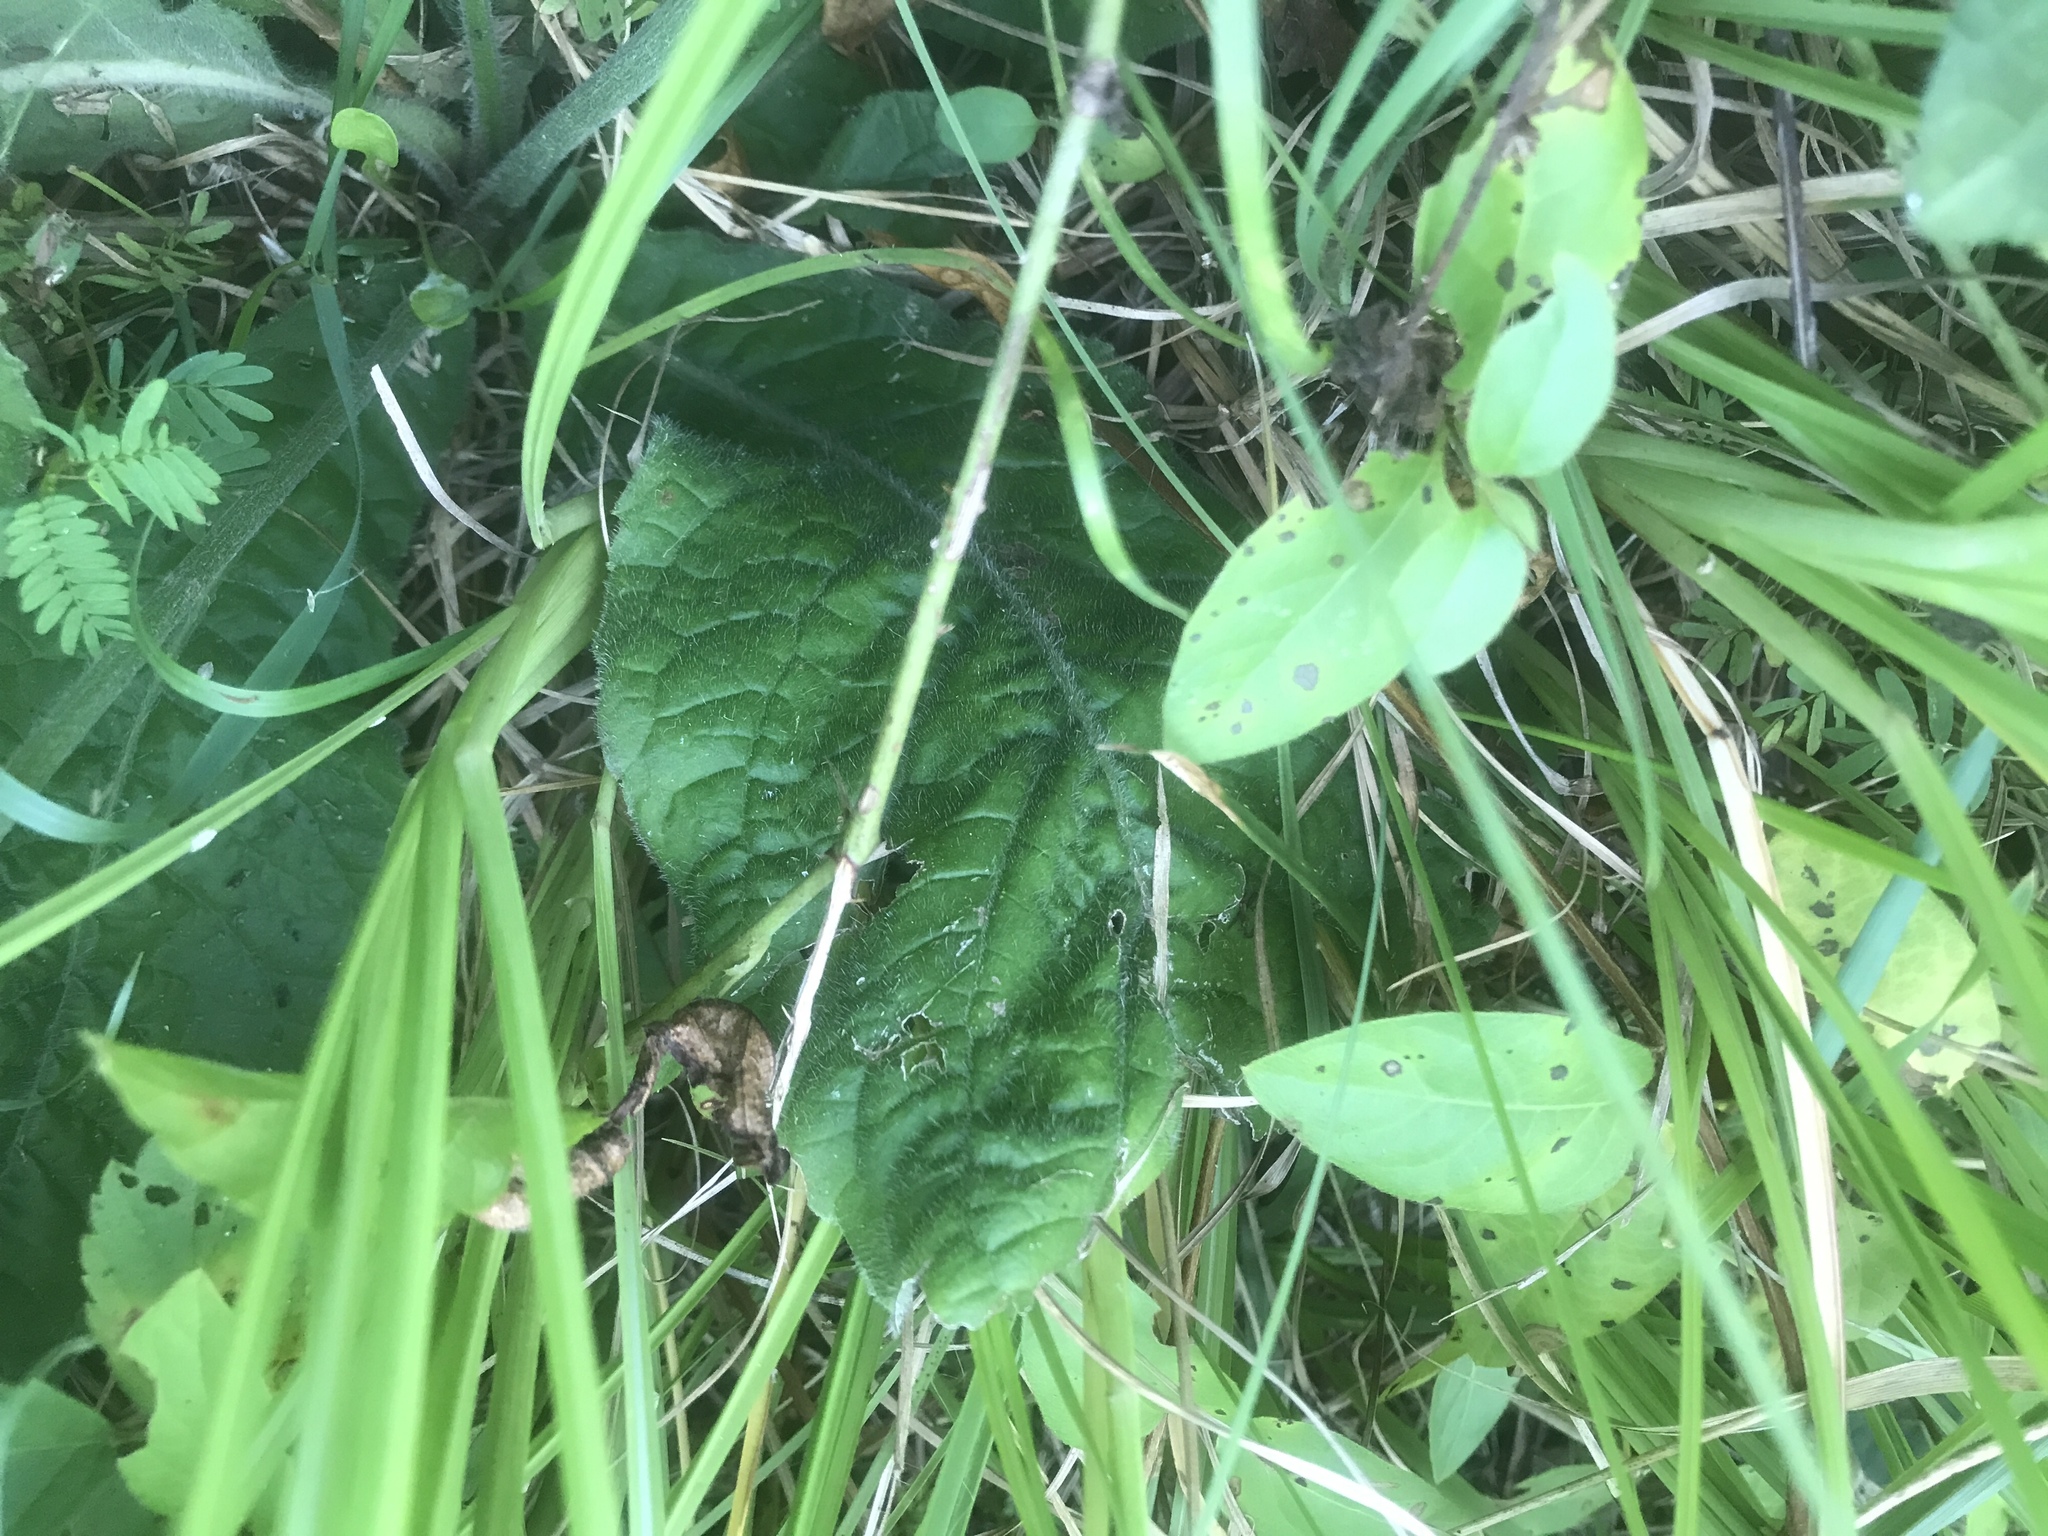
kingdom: Plantae
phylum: Tracheophyta
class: Magnoliopsida
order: Asterales
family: Asteraceae
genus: Elephantopus
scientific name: Elephantopus tomentosus
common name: Tobacco-weed
